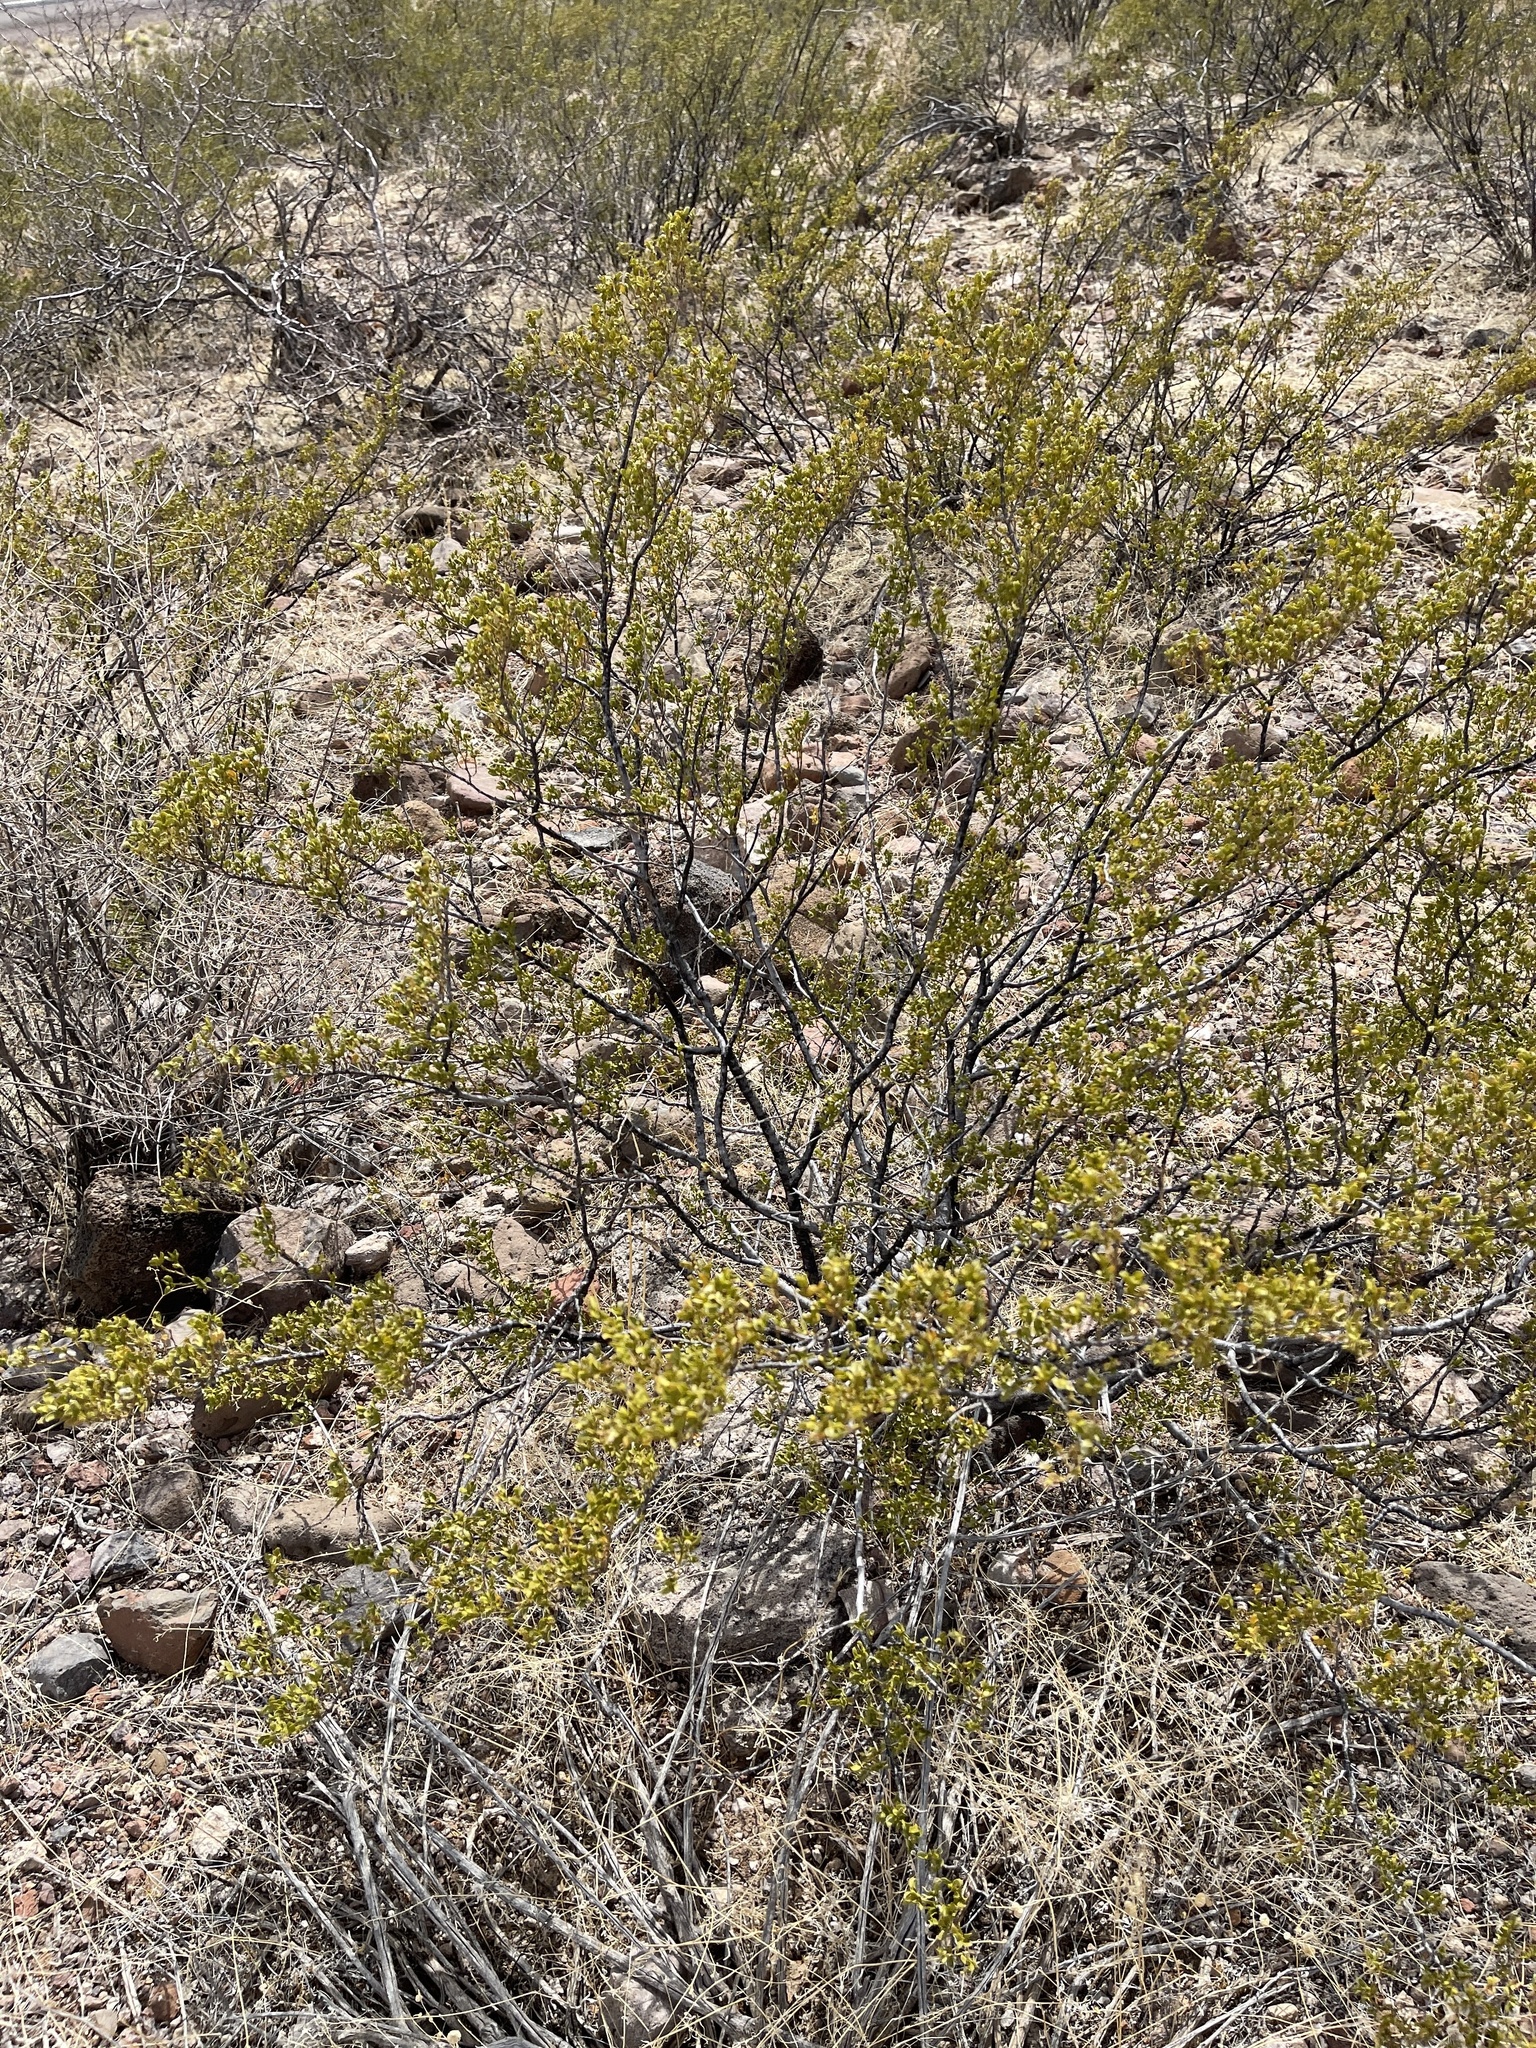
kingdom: Plantae
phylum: Tracheophyta
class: Magnoliopsida
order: Zygophyllales
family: Zygophyllaceae
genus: Larrea
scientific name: Larrea tridentata
